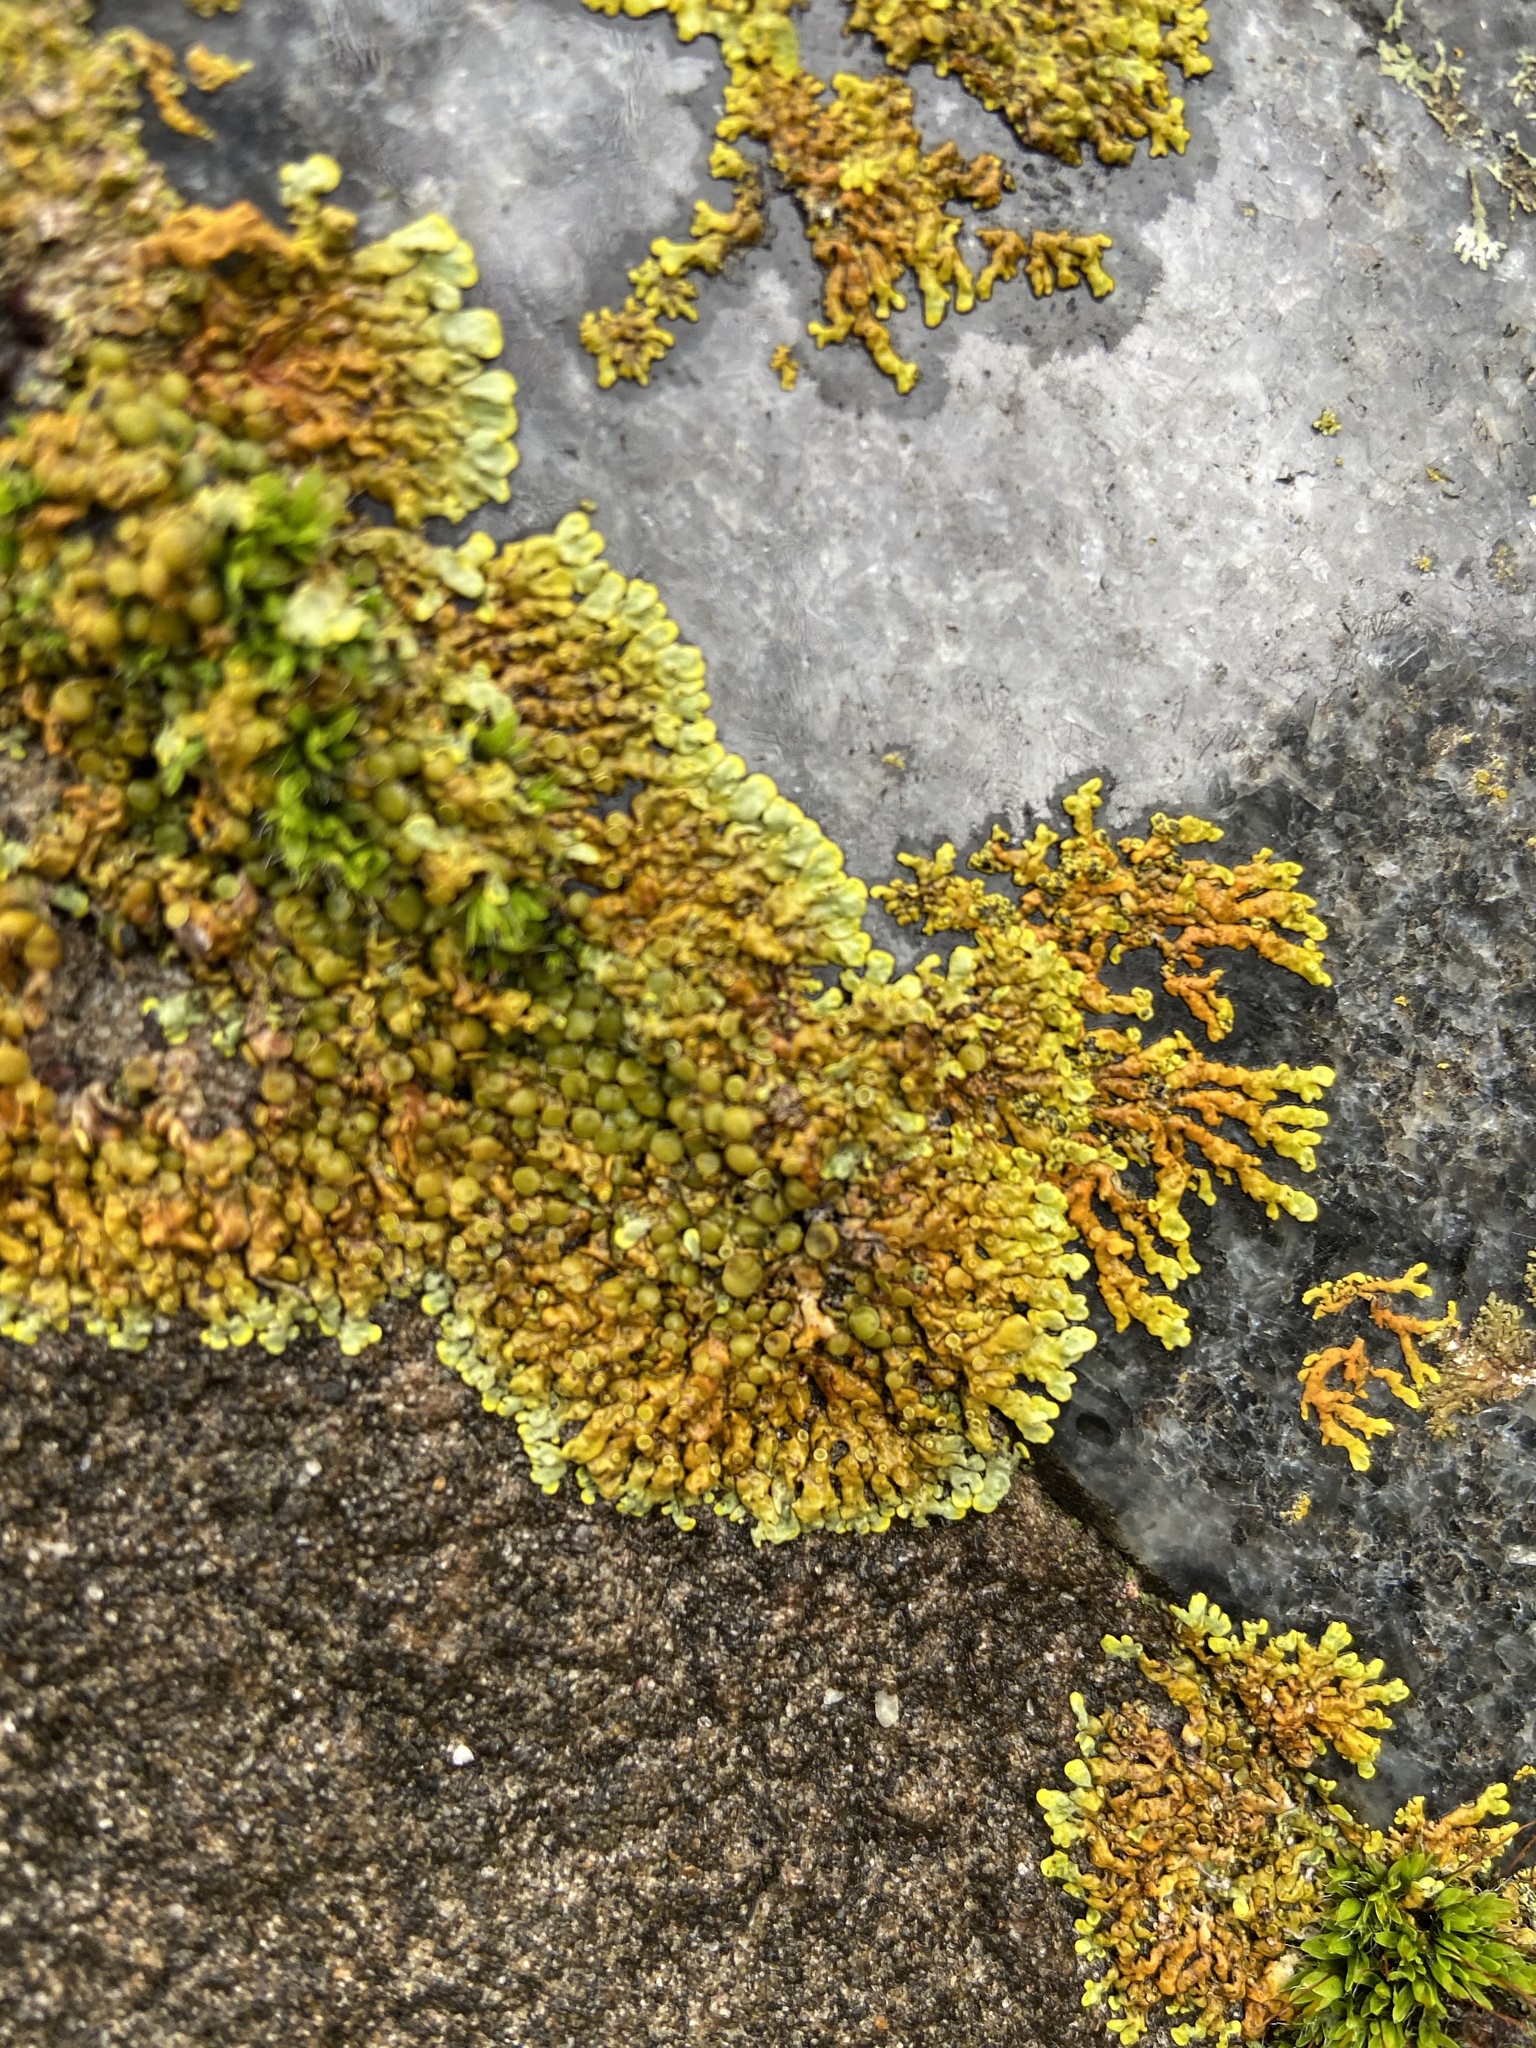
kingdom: Fungi
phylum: Ascomycota
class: Lecanoromycetes
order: Teloschistales
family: Teloschistaceae
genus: Dufourea
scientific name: Dufourea ligulata
